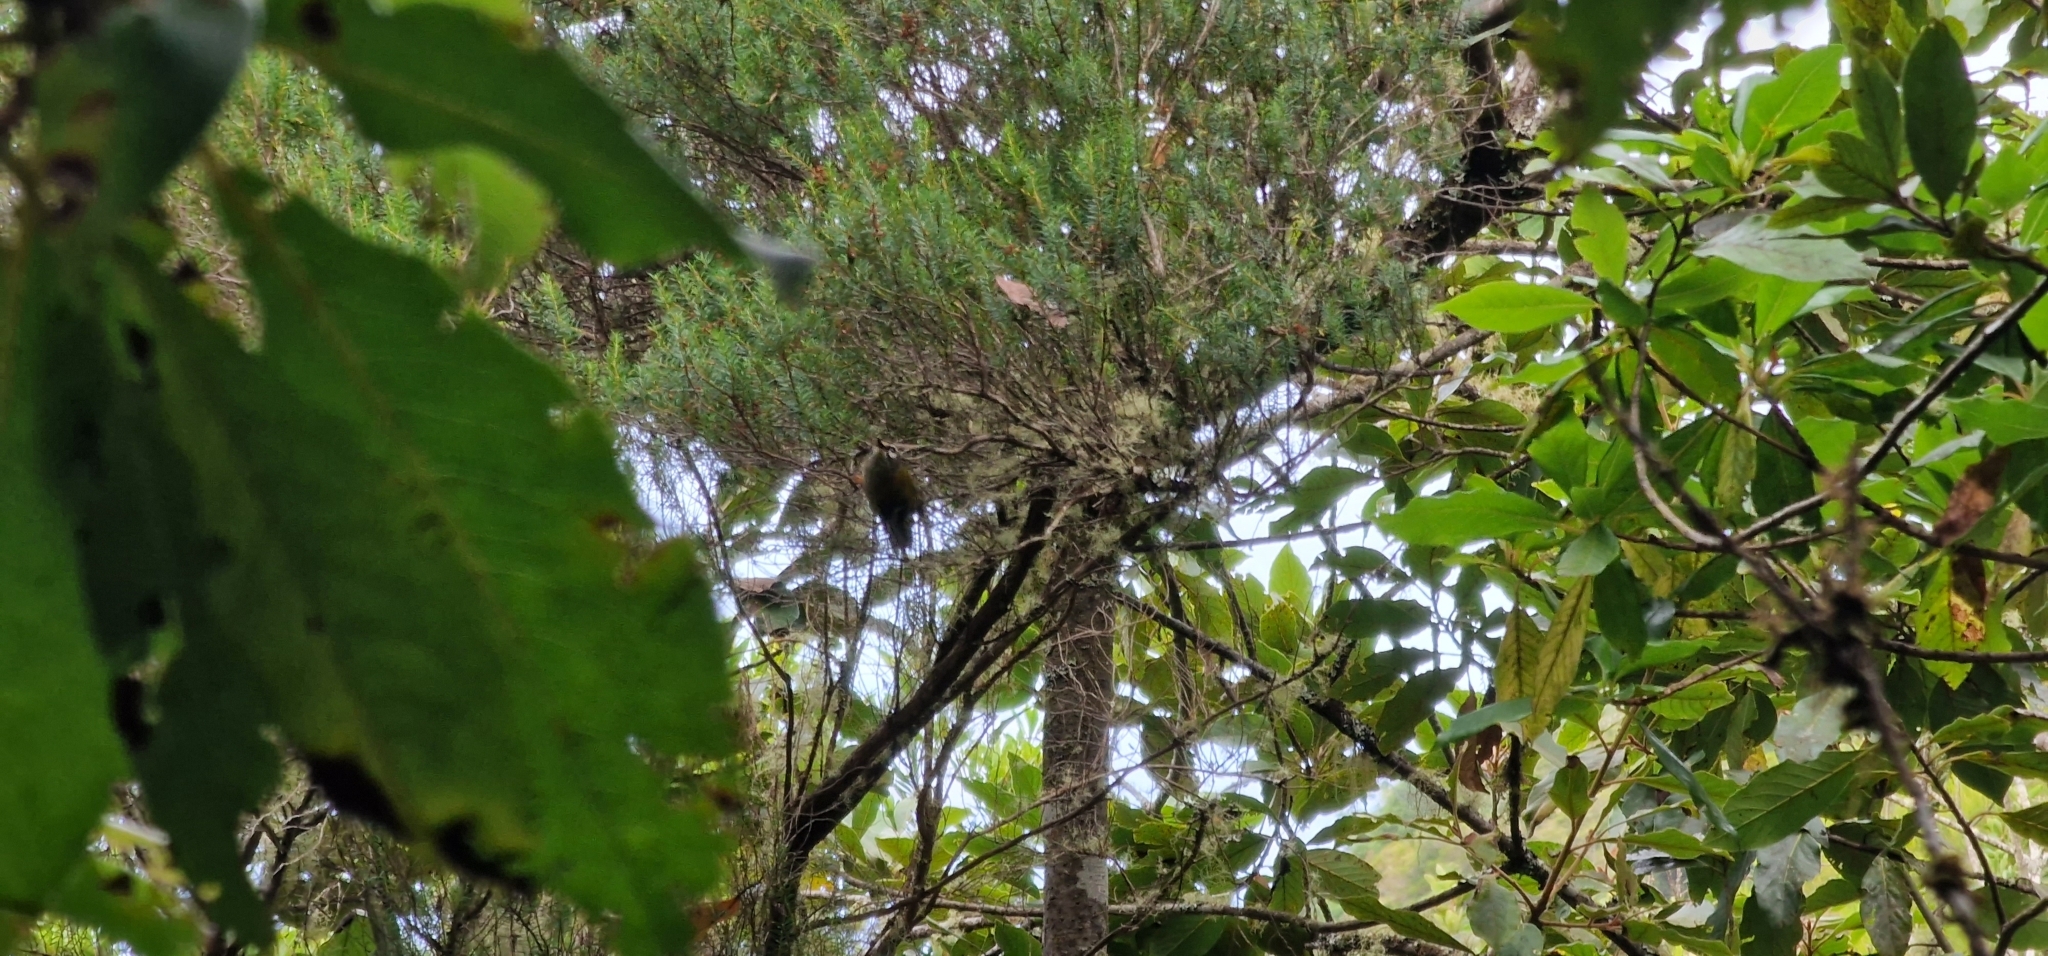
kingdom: Animalia
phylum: Chordata
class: Aves
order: Passeriformes
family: Regulidae
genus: Regulus
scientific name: Regulus madeirensis
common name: Madeira firecrest
